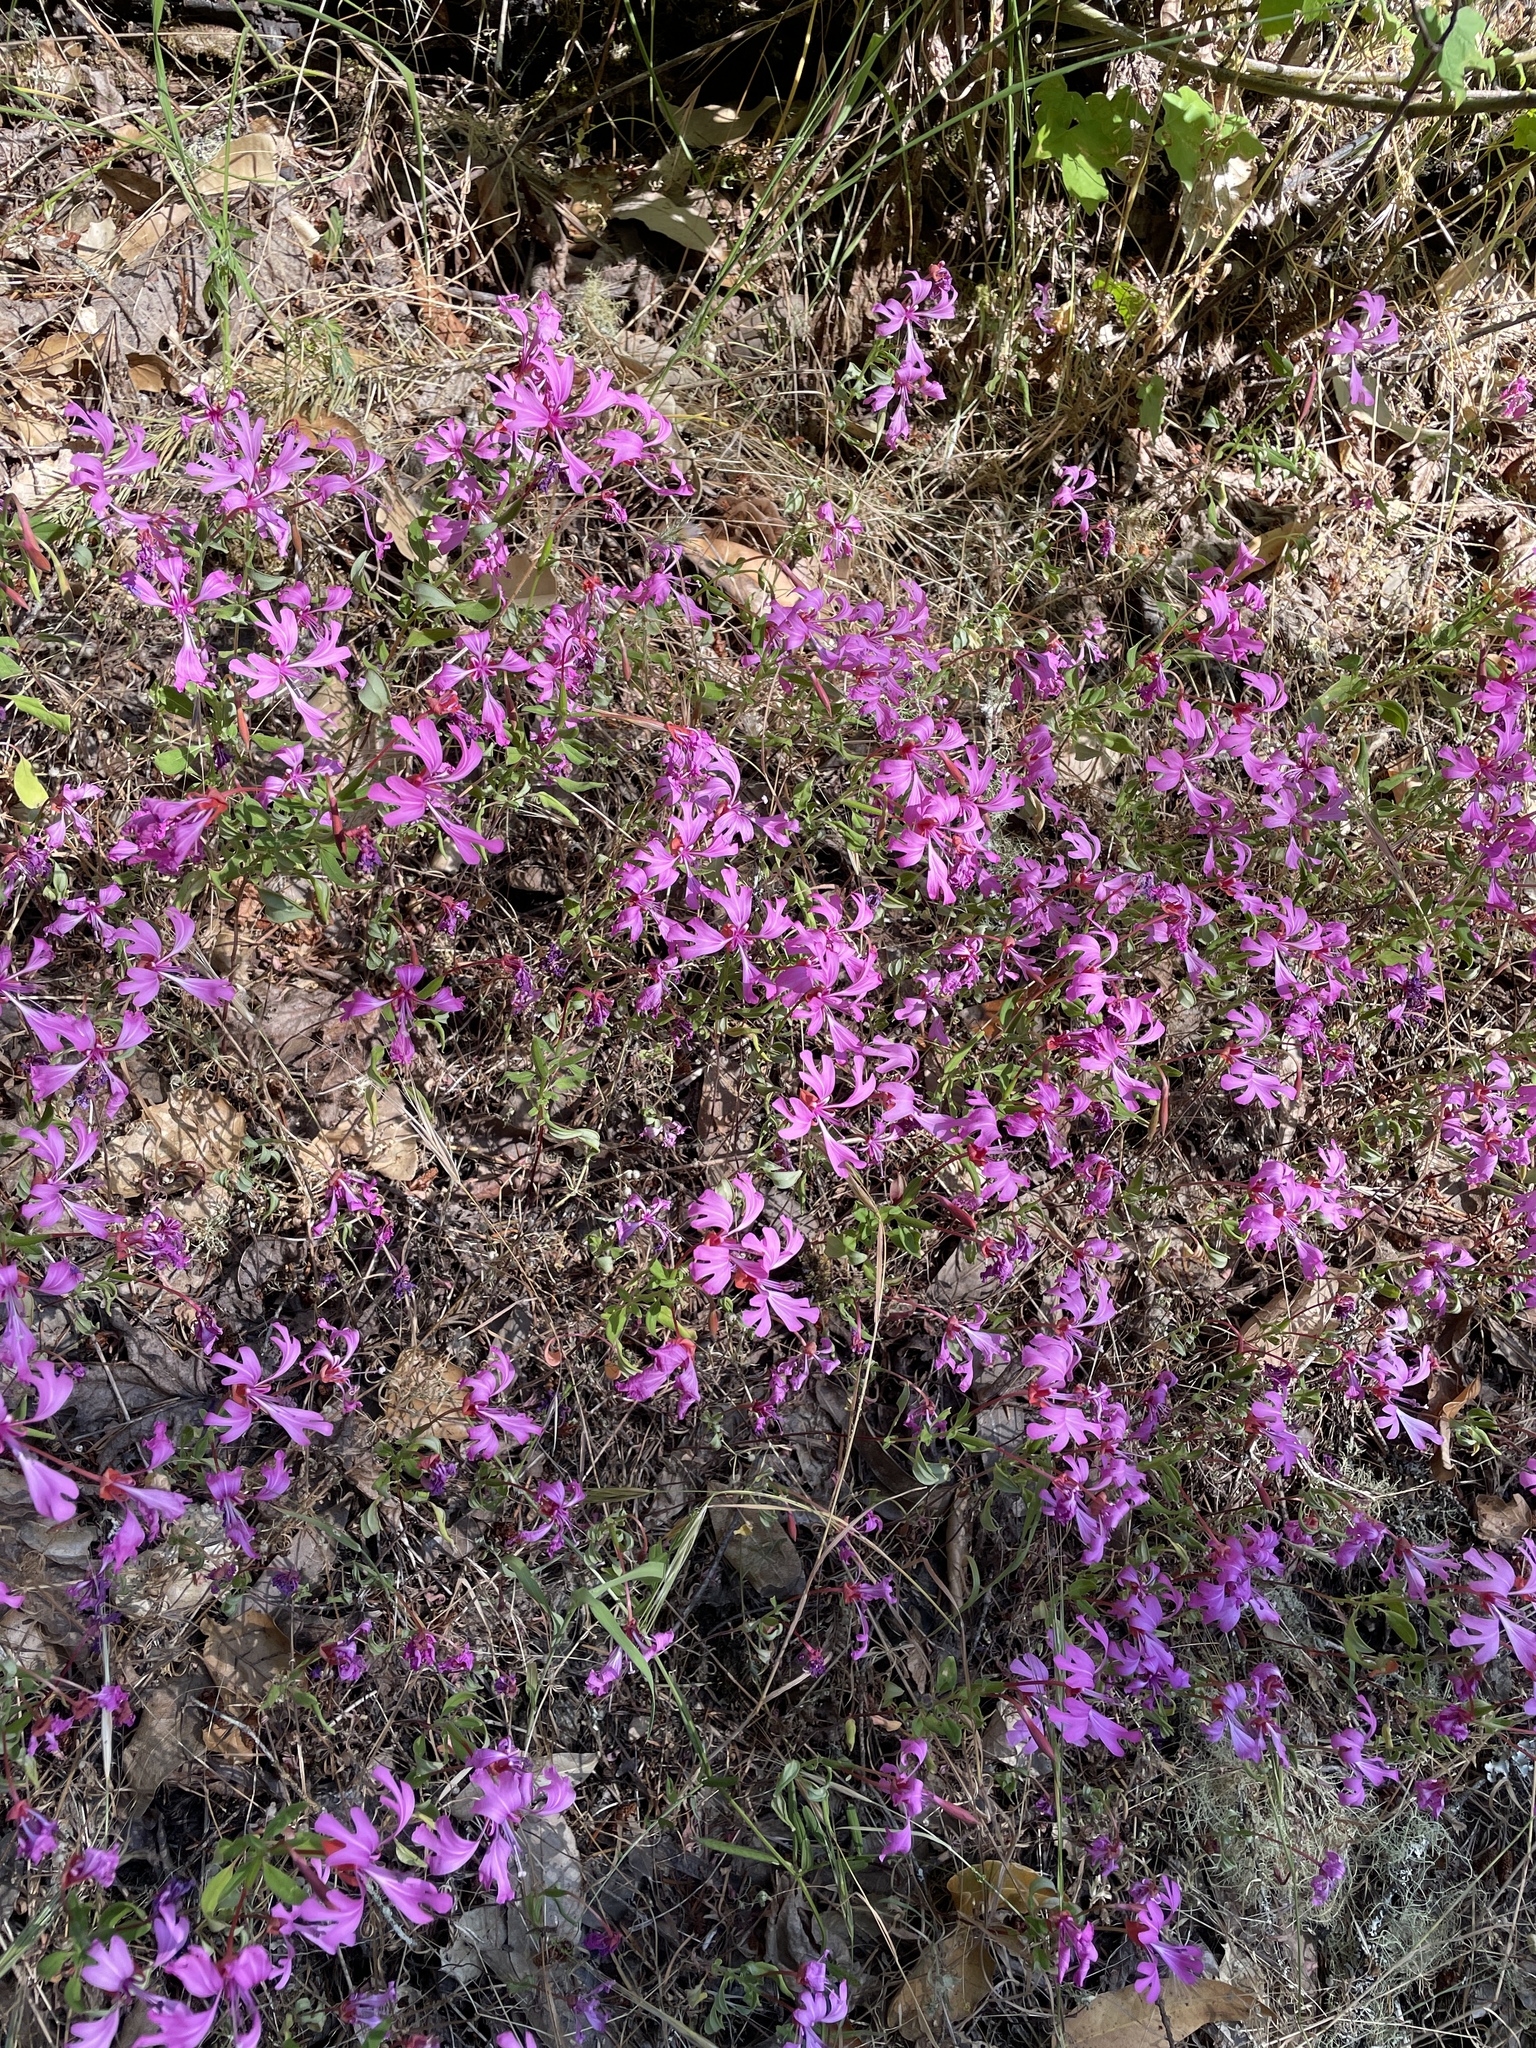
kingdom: Plantae
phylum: Tracheophyta
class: Magnoliopsida
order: Myrtales
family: Onagraceae
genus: Clarkia
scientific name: Clarkia concinna
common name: Red-ribbons
